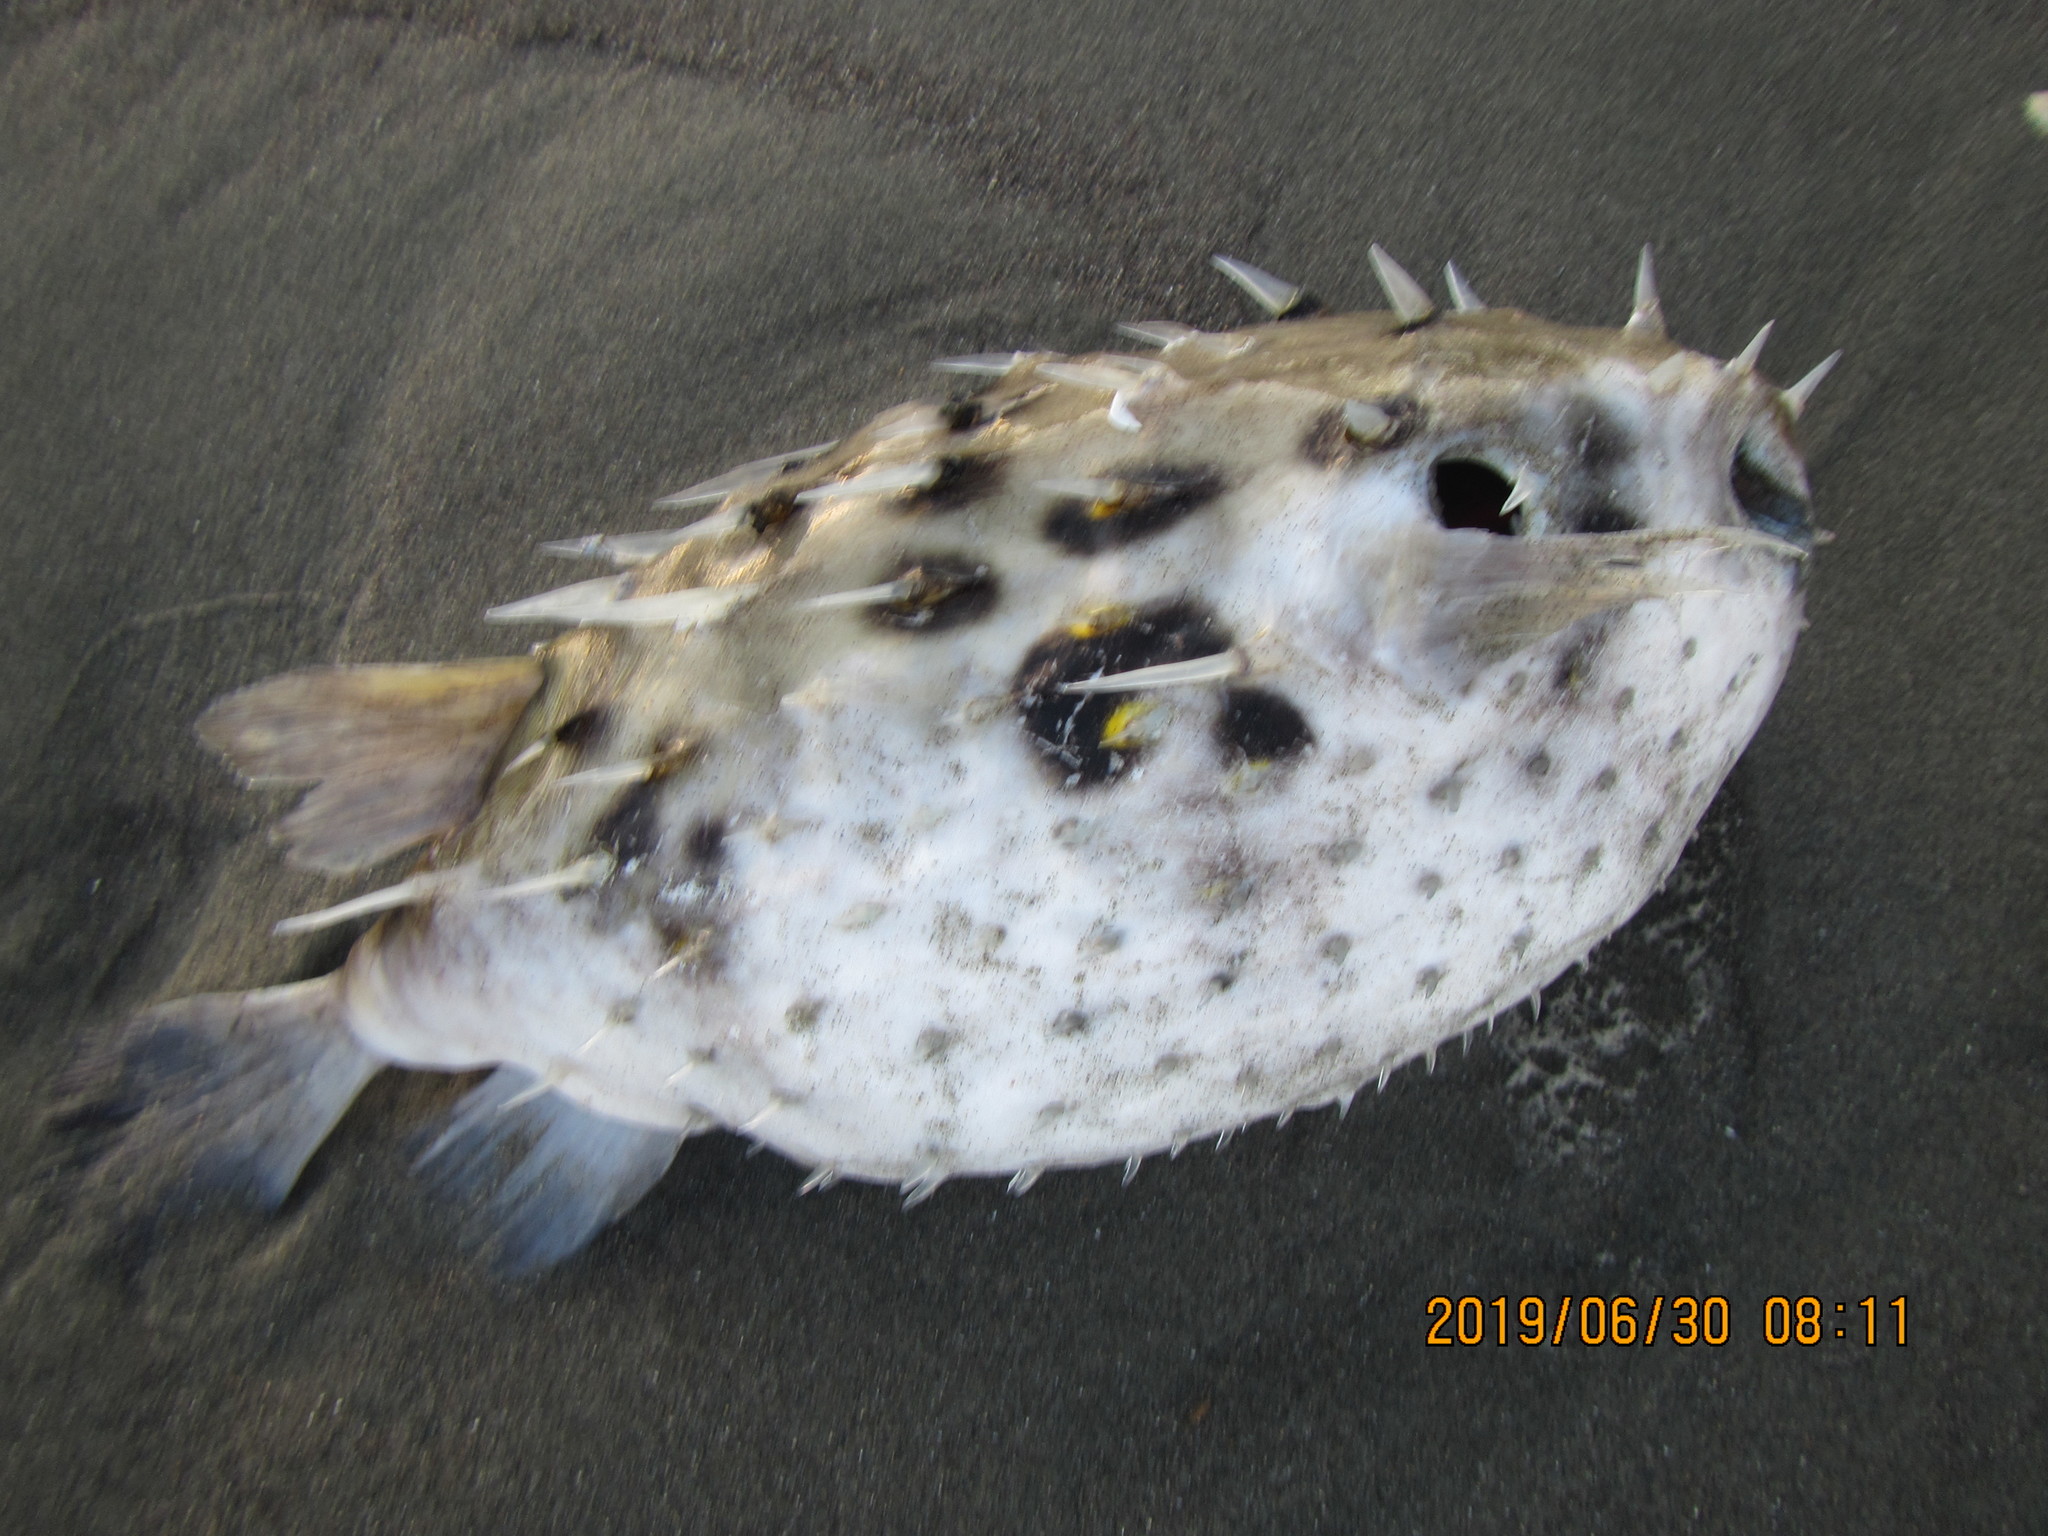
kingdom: Animalia
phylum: Chordata
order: Tetraodontiformes
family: Diodontidae
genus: Allomycterus
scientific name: Allomycterus pilatus
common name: No common name
